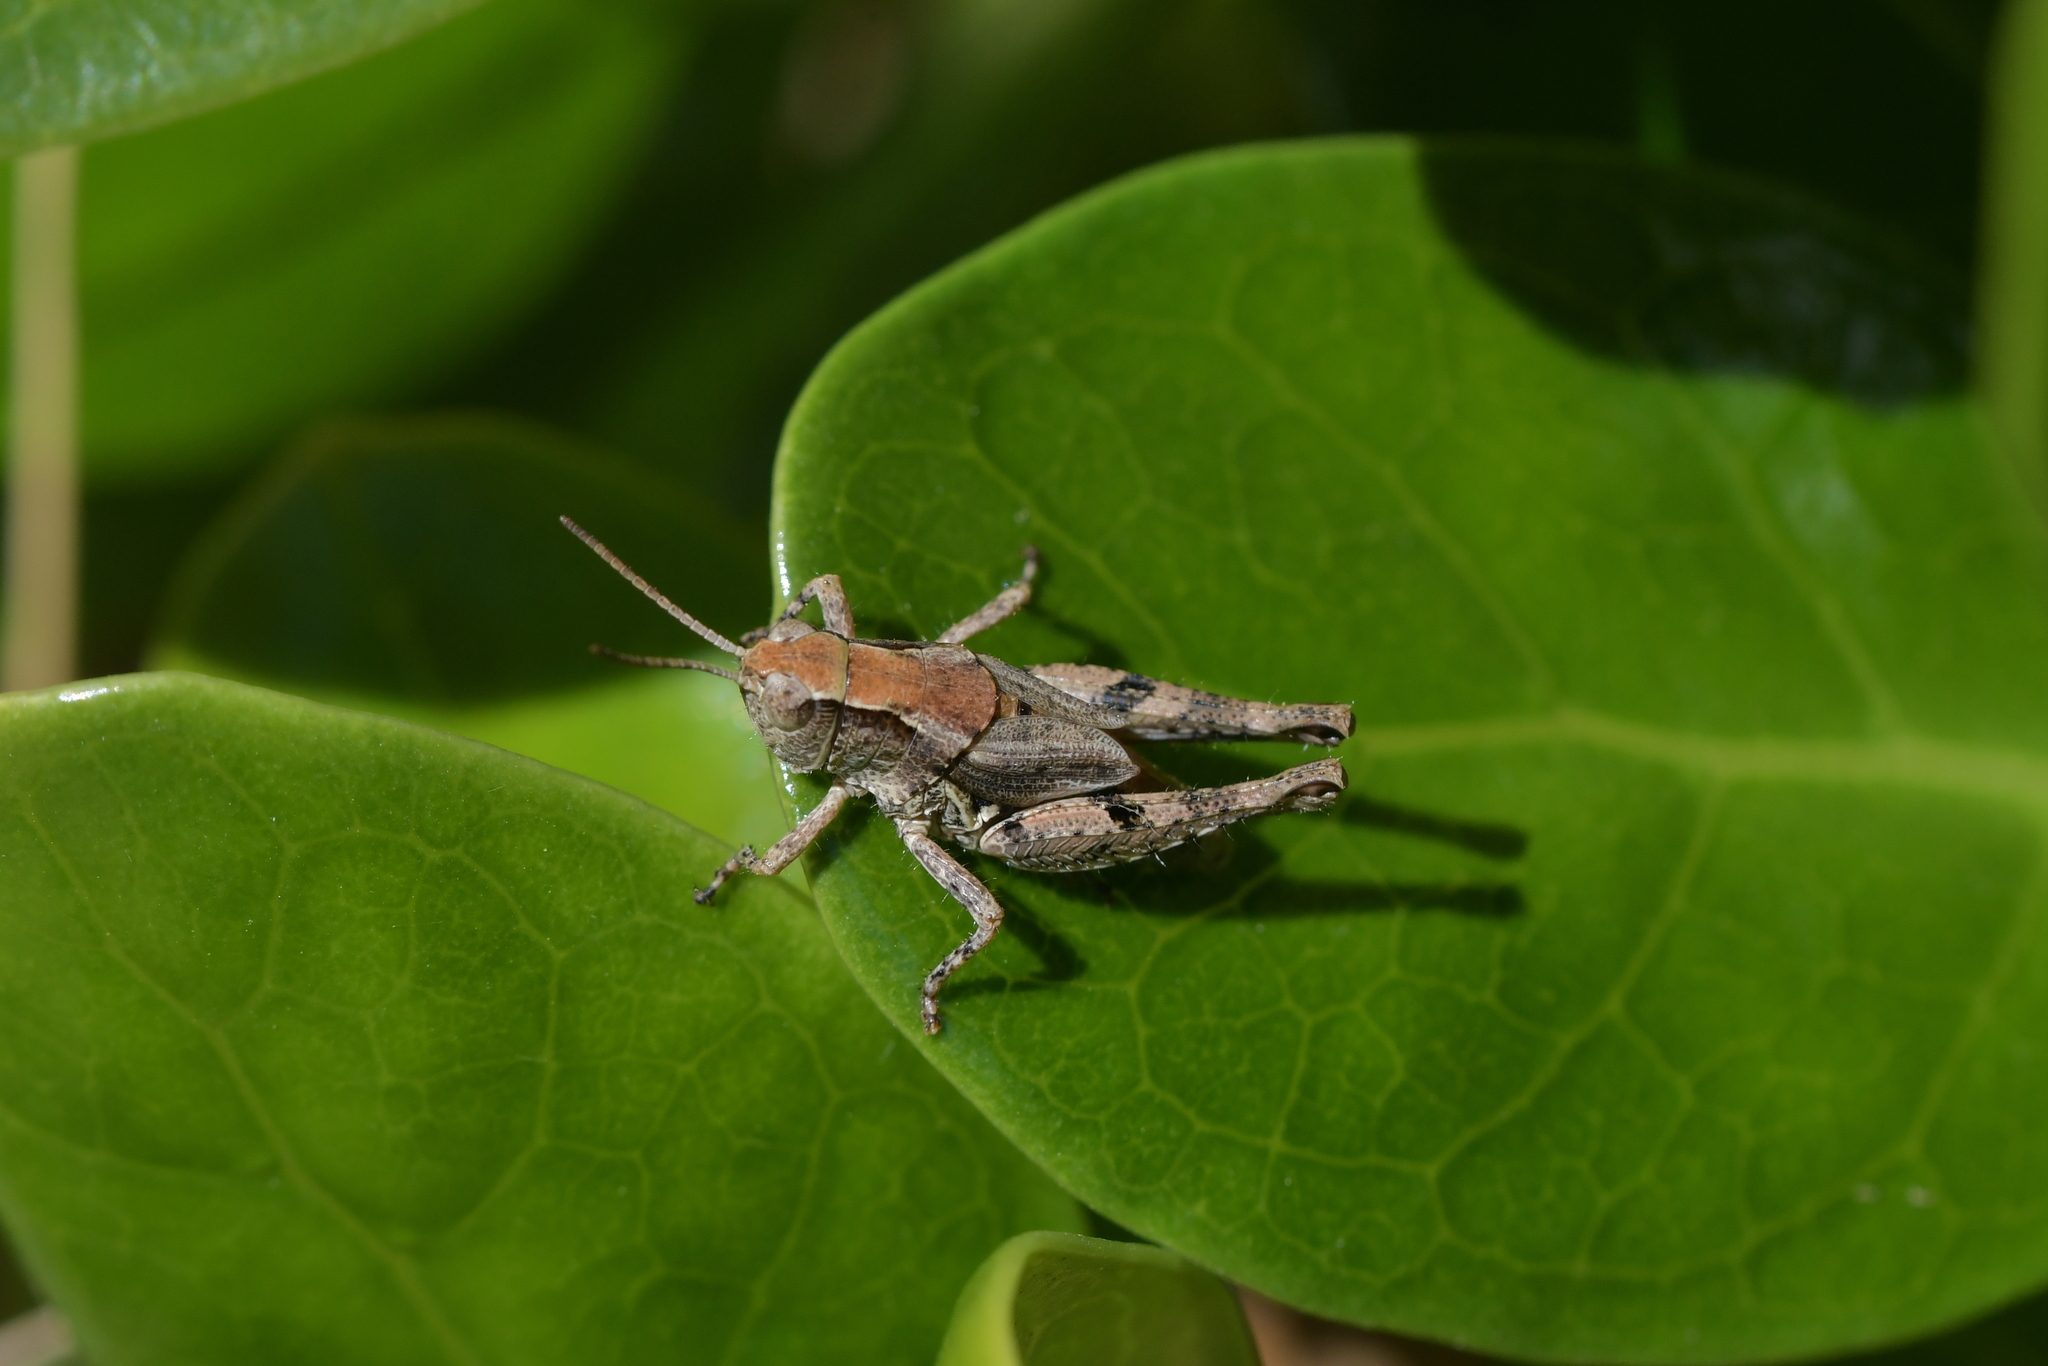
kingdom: Animalia
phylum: Arthropoda
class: Insecta
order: Orthoptera
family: Acrididae
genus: Phaulacridium
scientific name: Phaulacridium marginale
